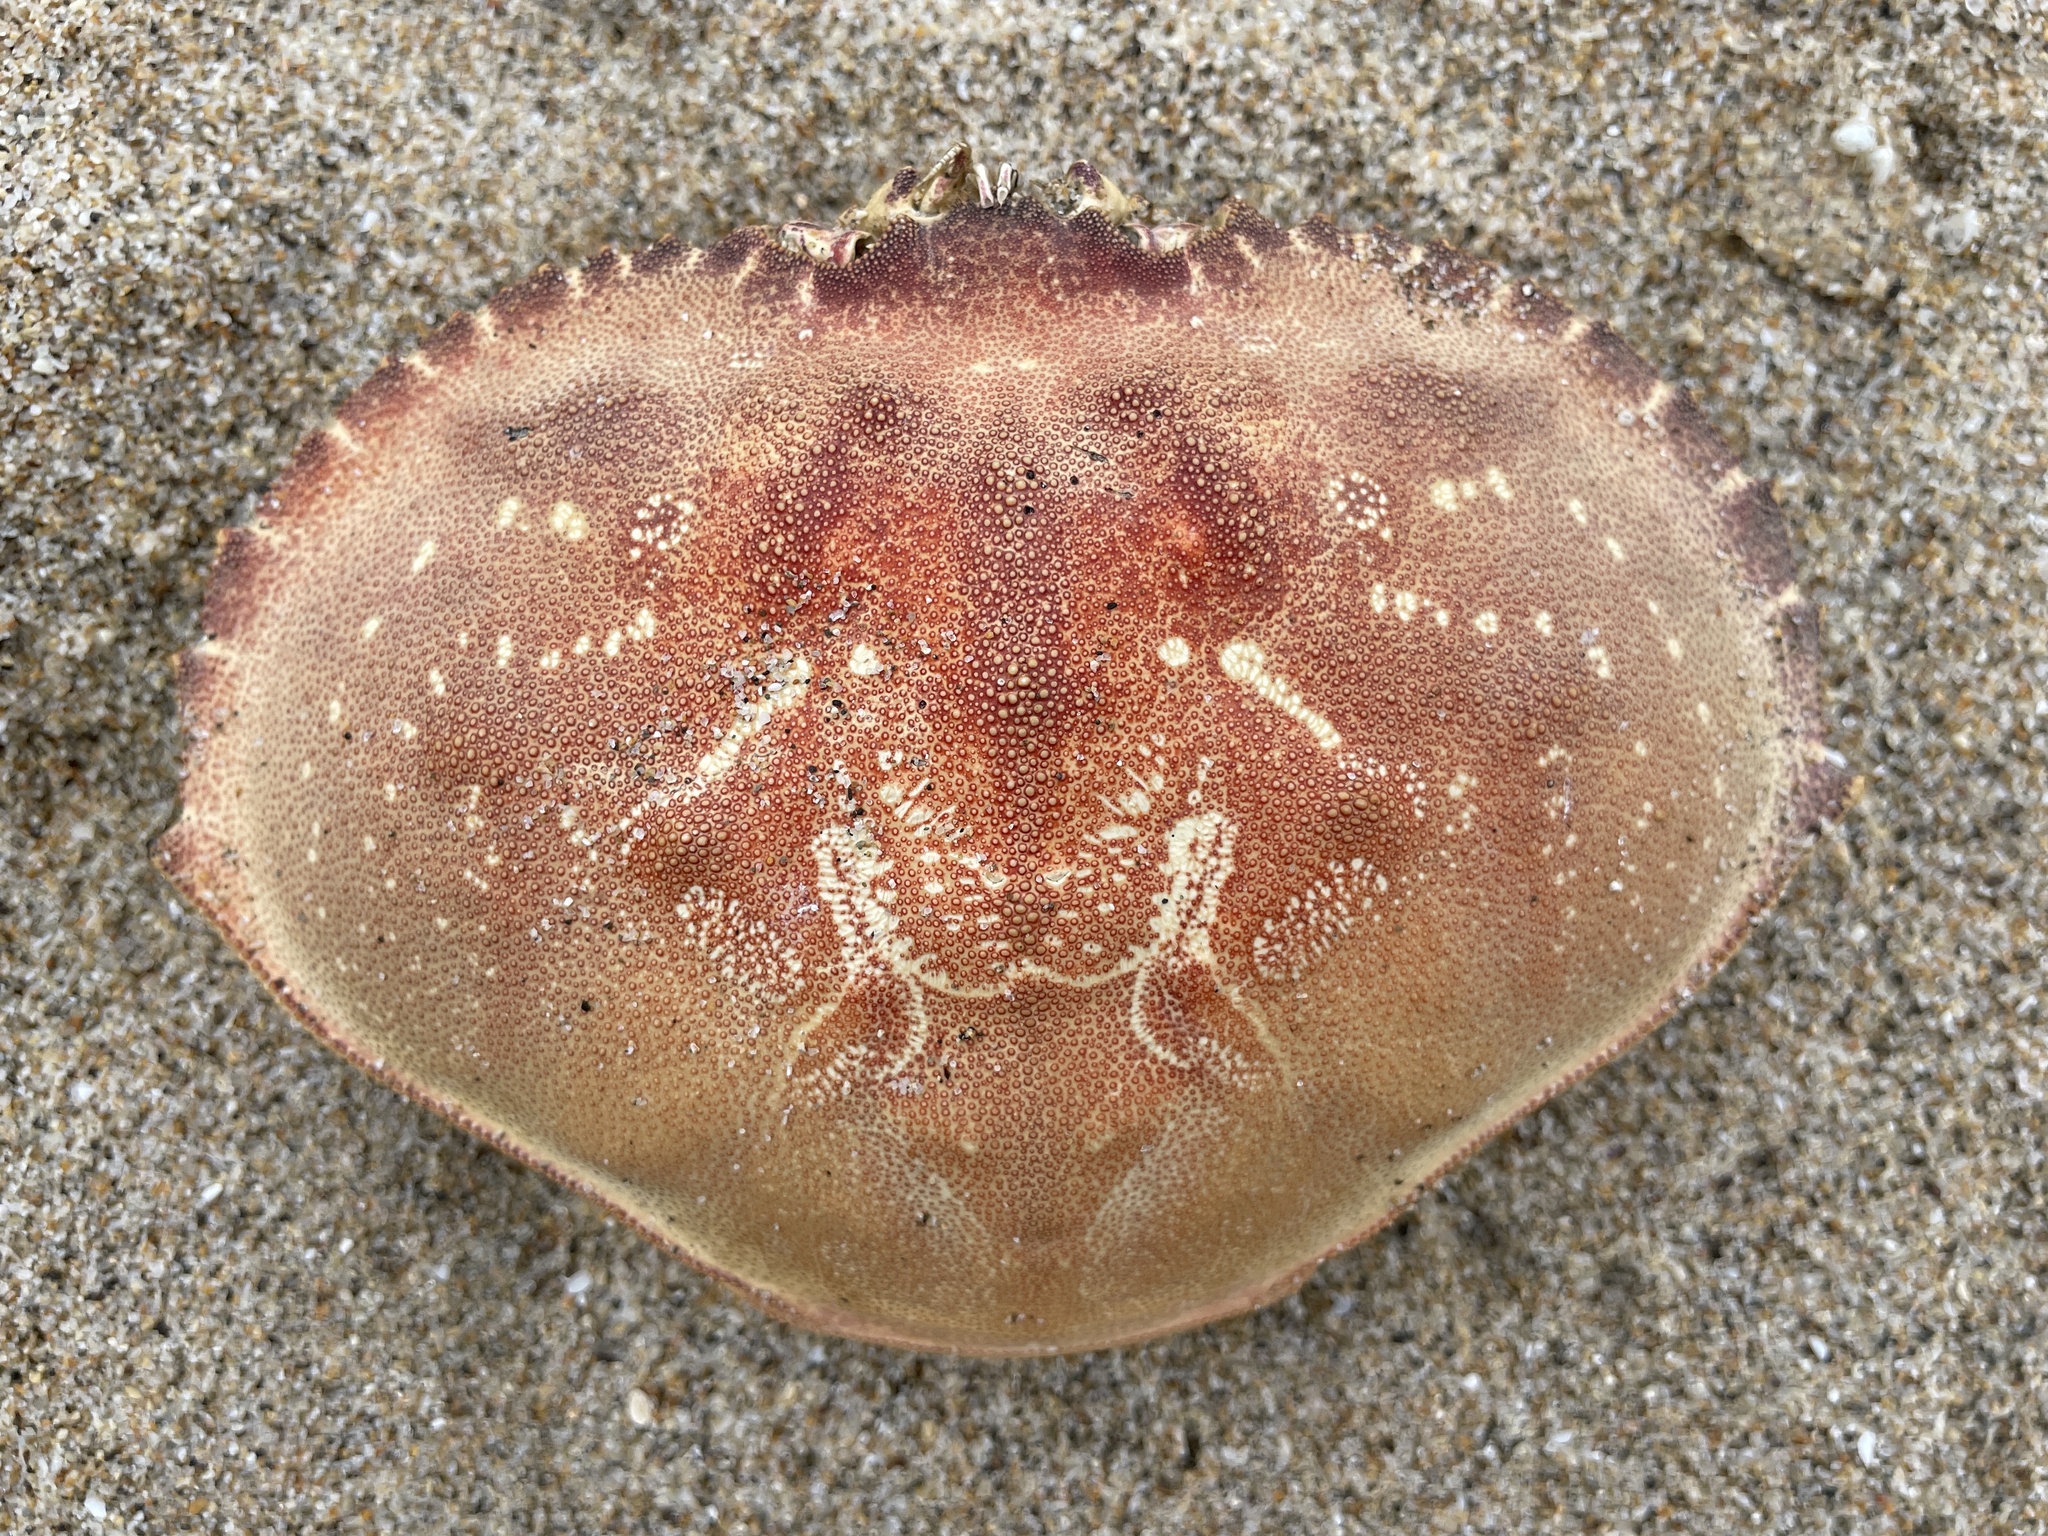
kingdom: Animalia
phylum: Arthropoda
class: Malacostraca
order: Decapoda
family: Cancridae
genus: Metacarcinus
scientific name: Metacarcinus magister
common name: Californian crab
